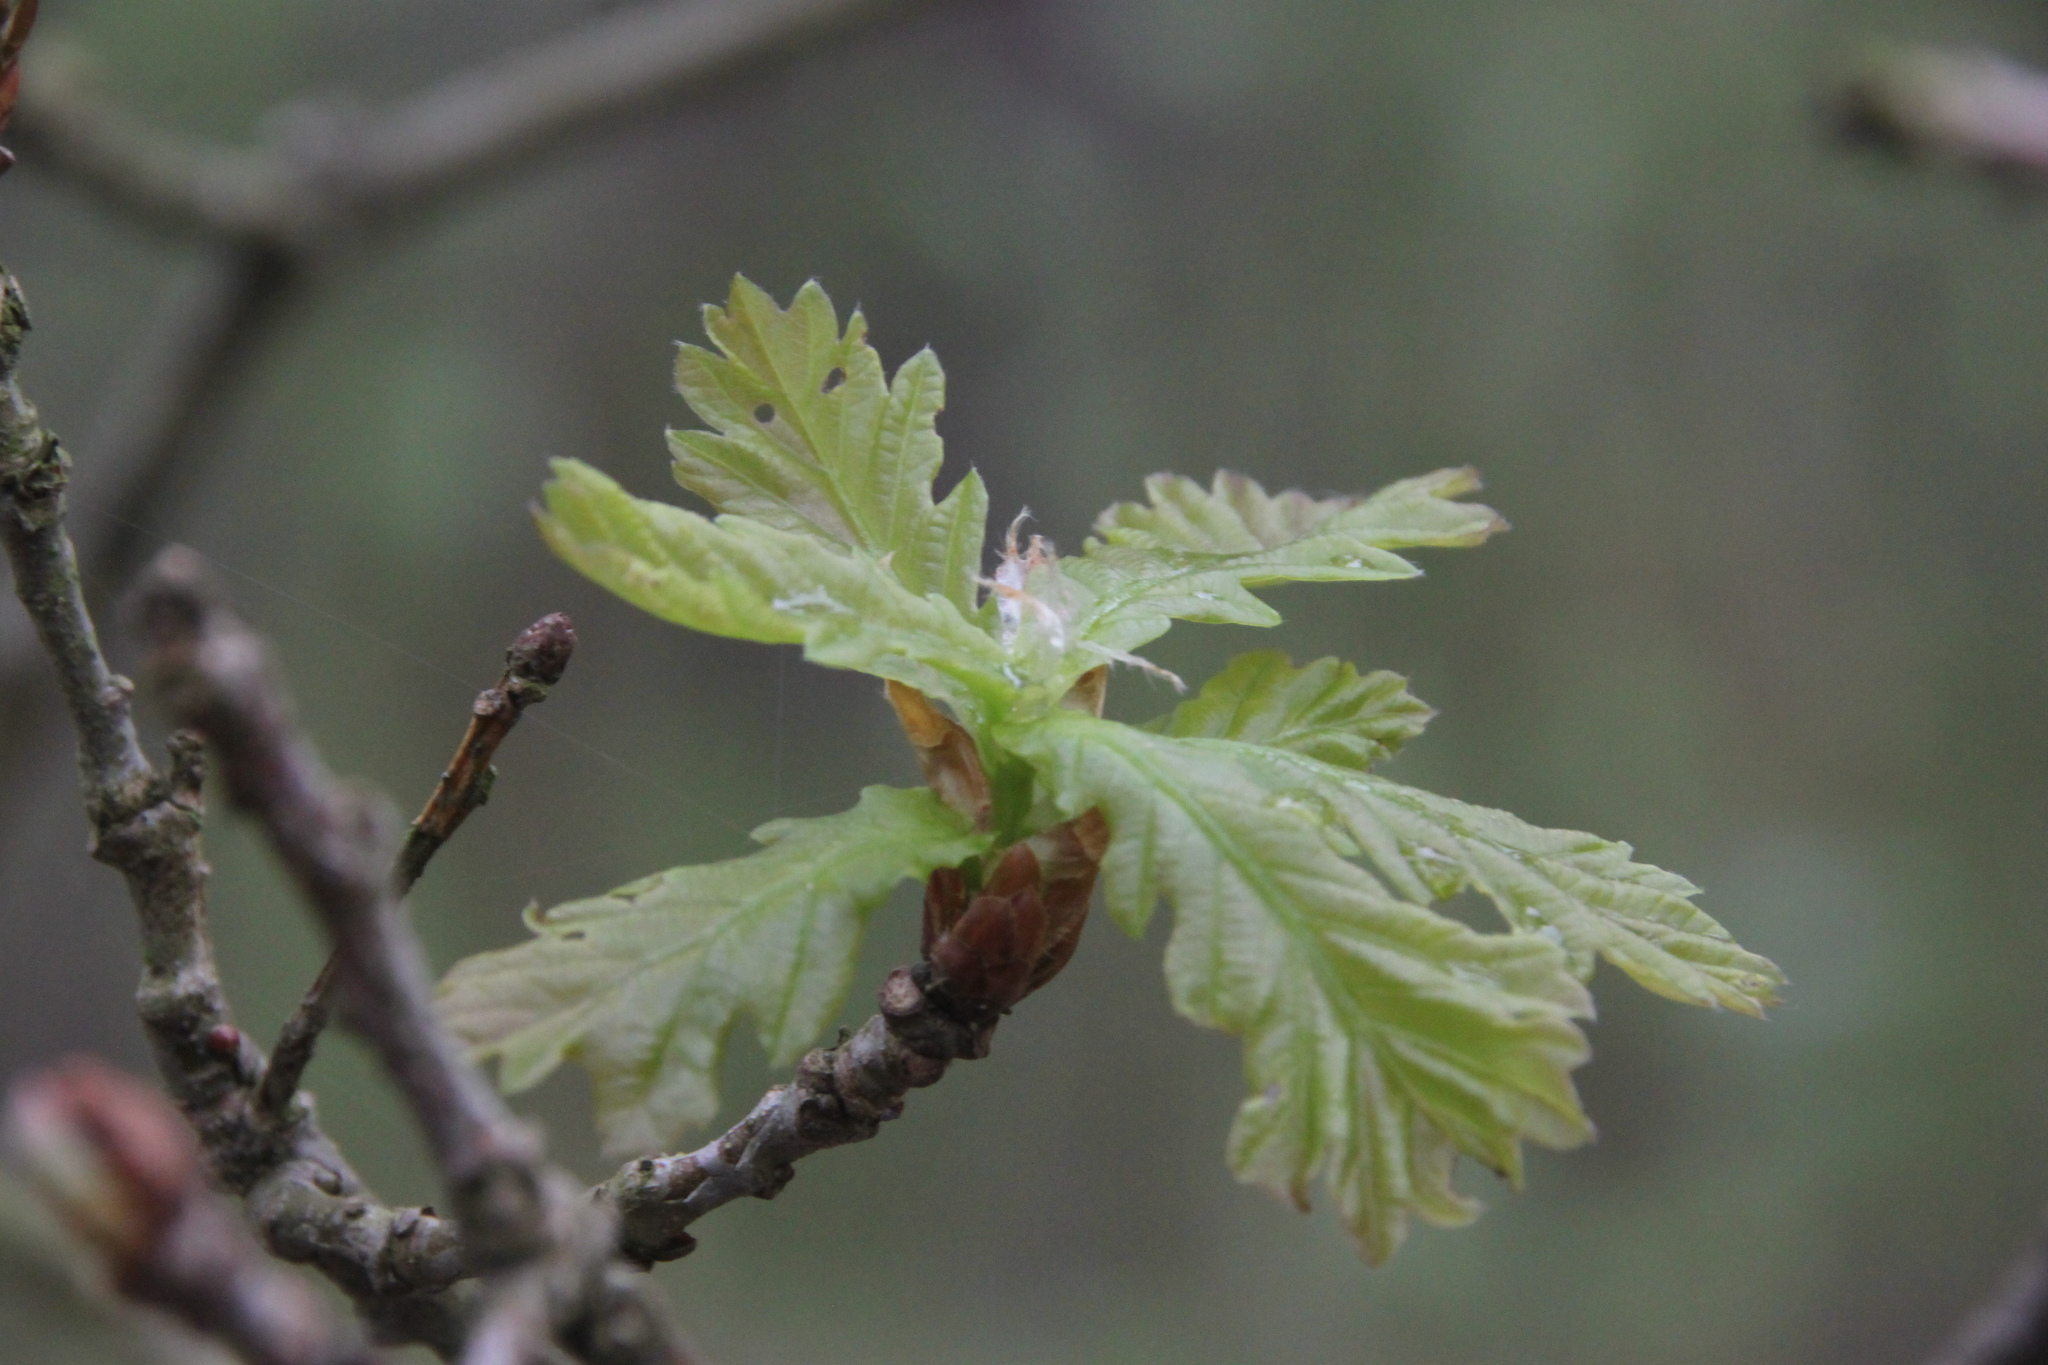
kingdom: Plantae
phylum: Tracheophyta
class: Magnoliopsida
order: Fagales
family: Fagaceae
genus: Quercus
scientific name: Quercus robur
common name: Pedunculate oak
